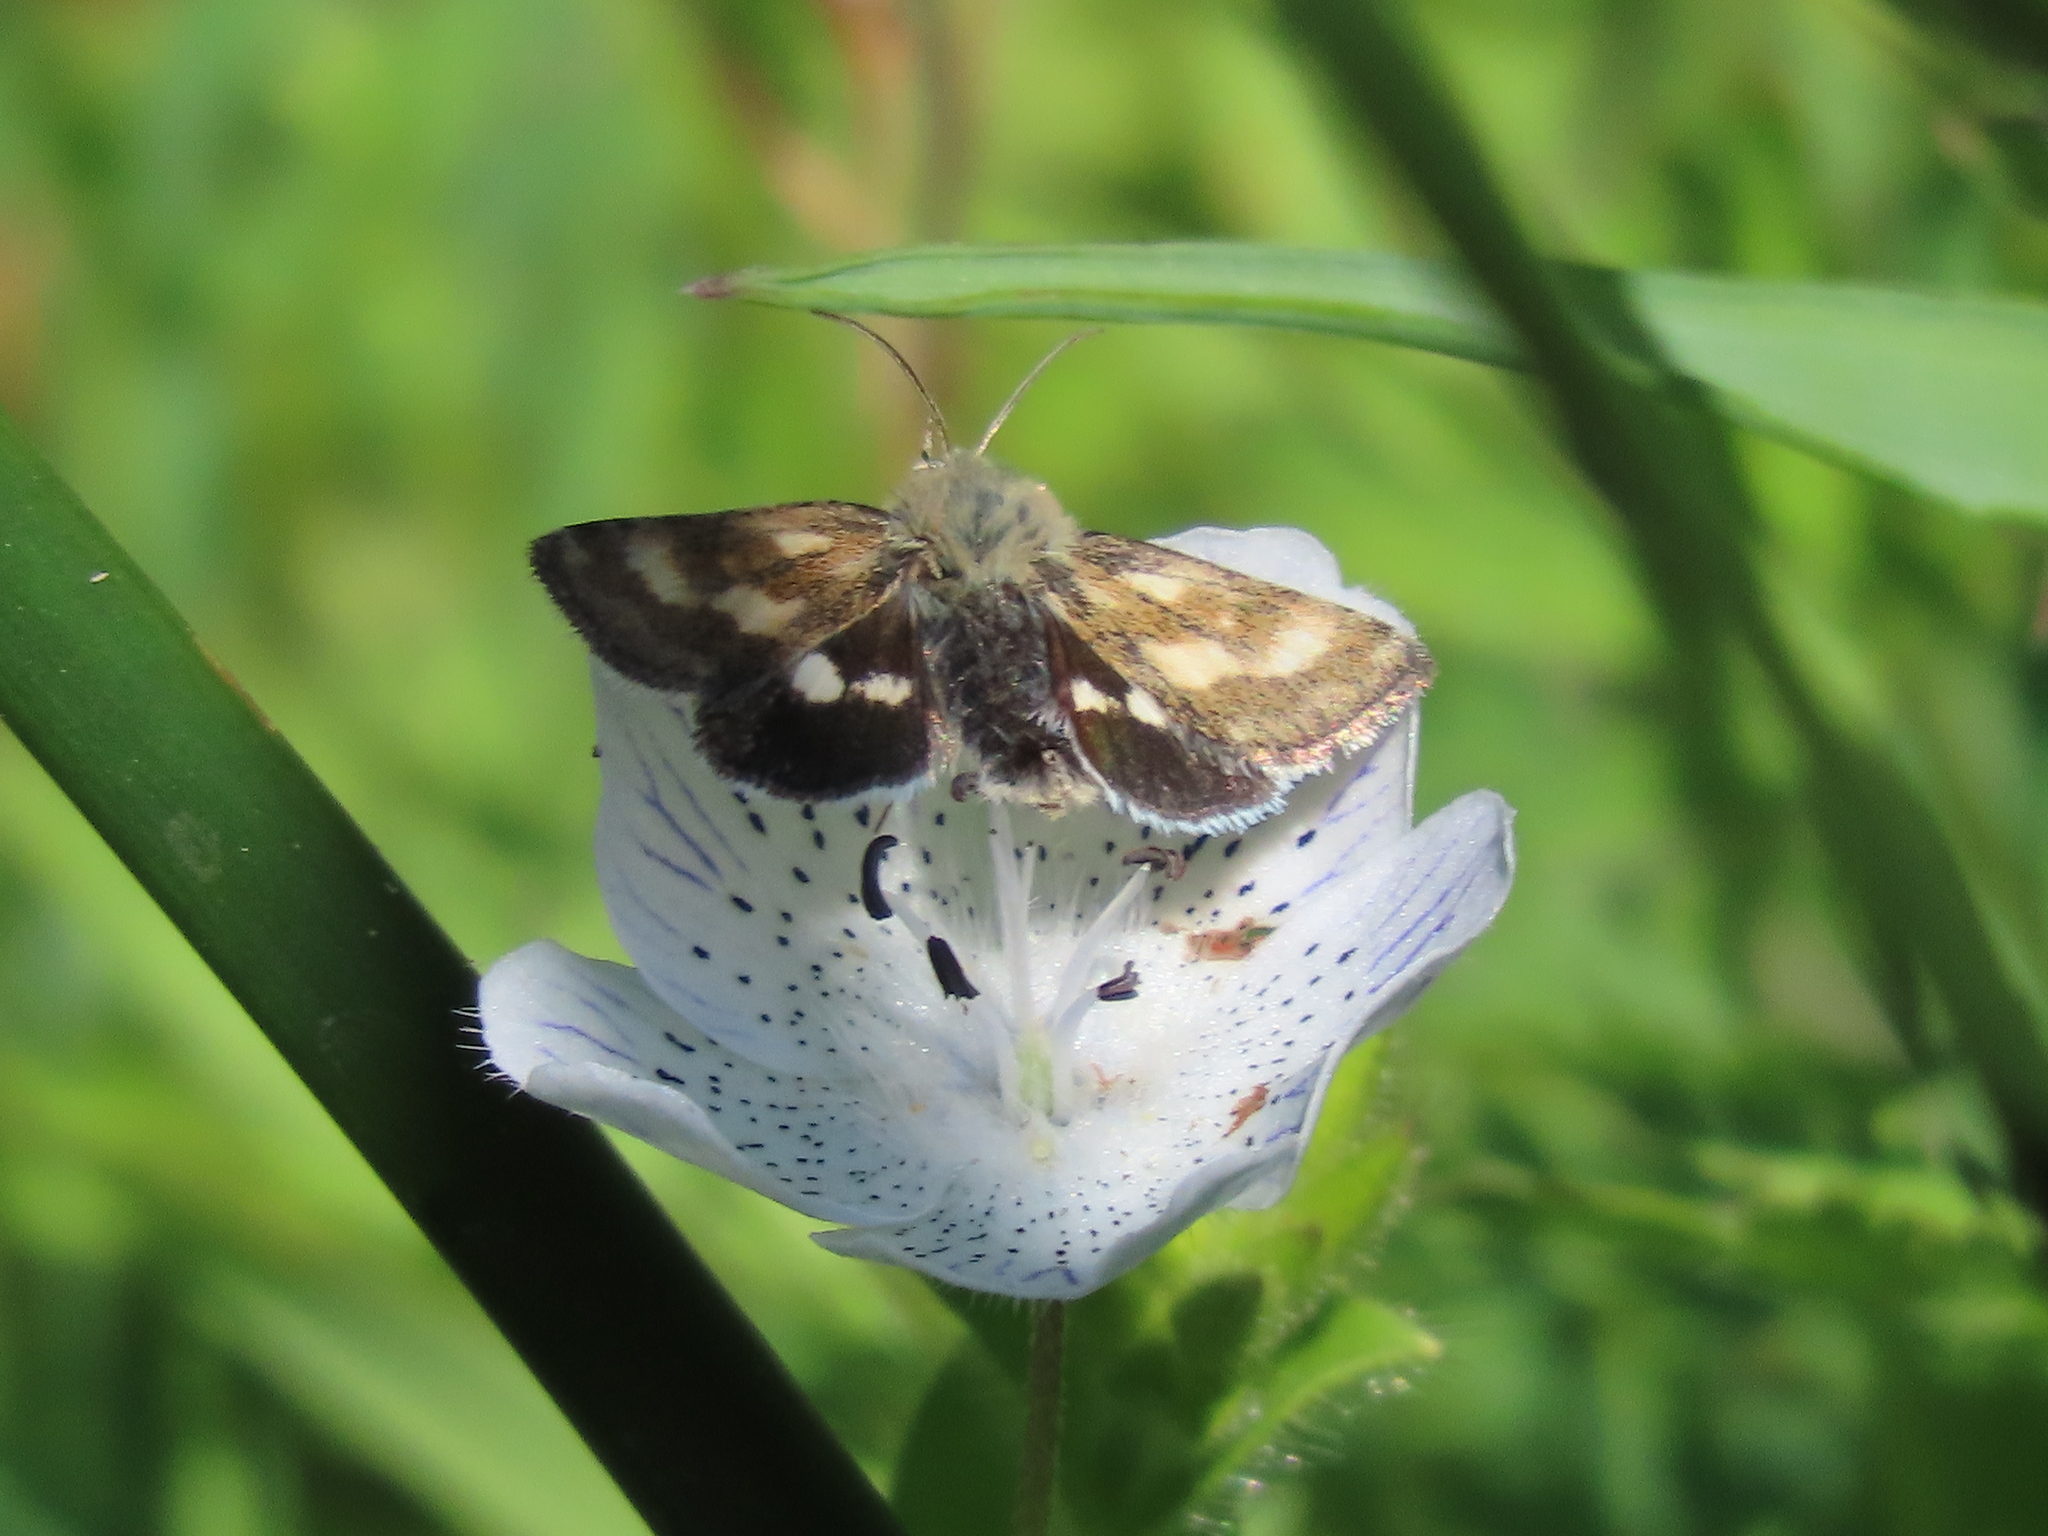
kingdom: Animalia
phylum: Arthropoda
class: Insecta
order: Lepidoptera
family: Noctuidae
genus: Heliothodes
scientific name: Heliothodes diminutiva
